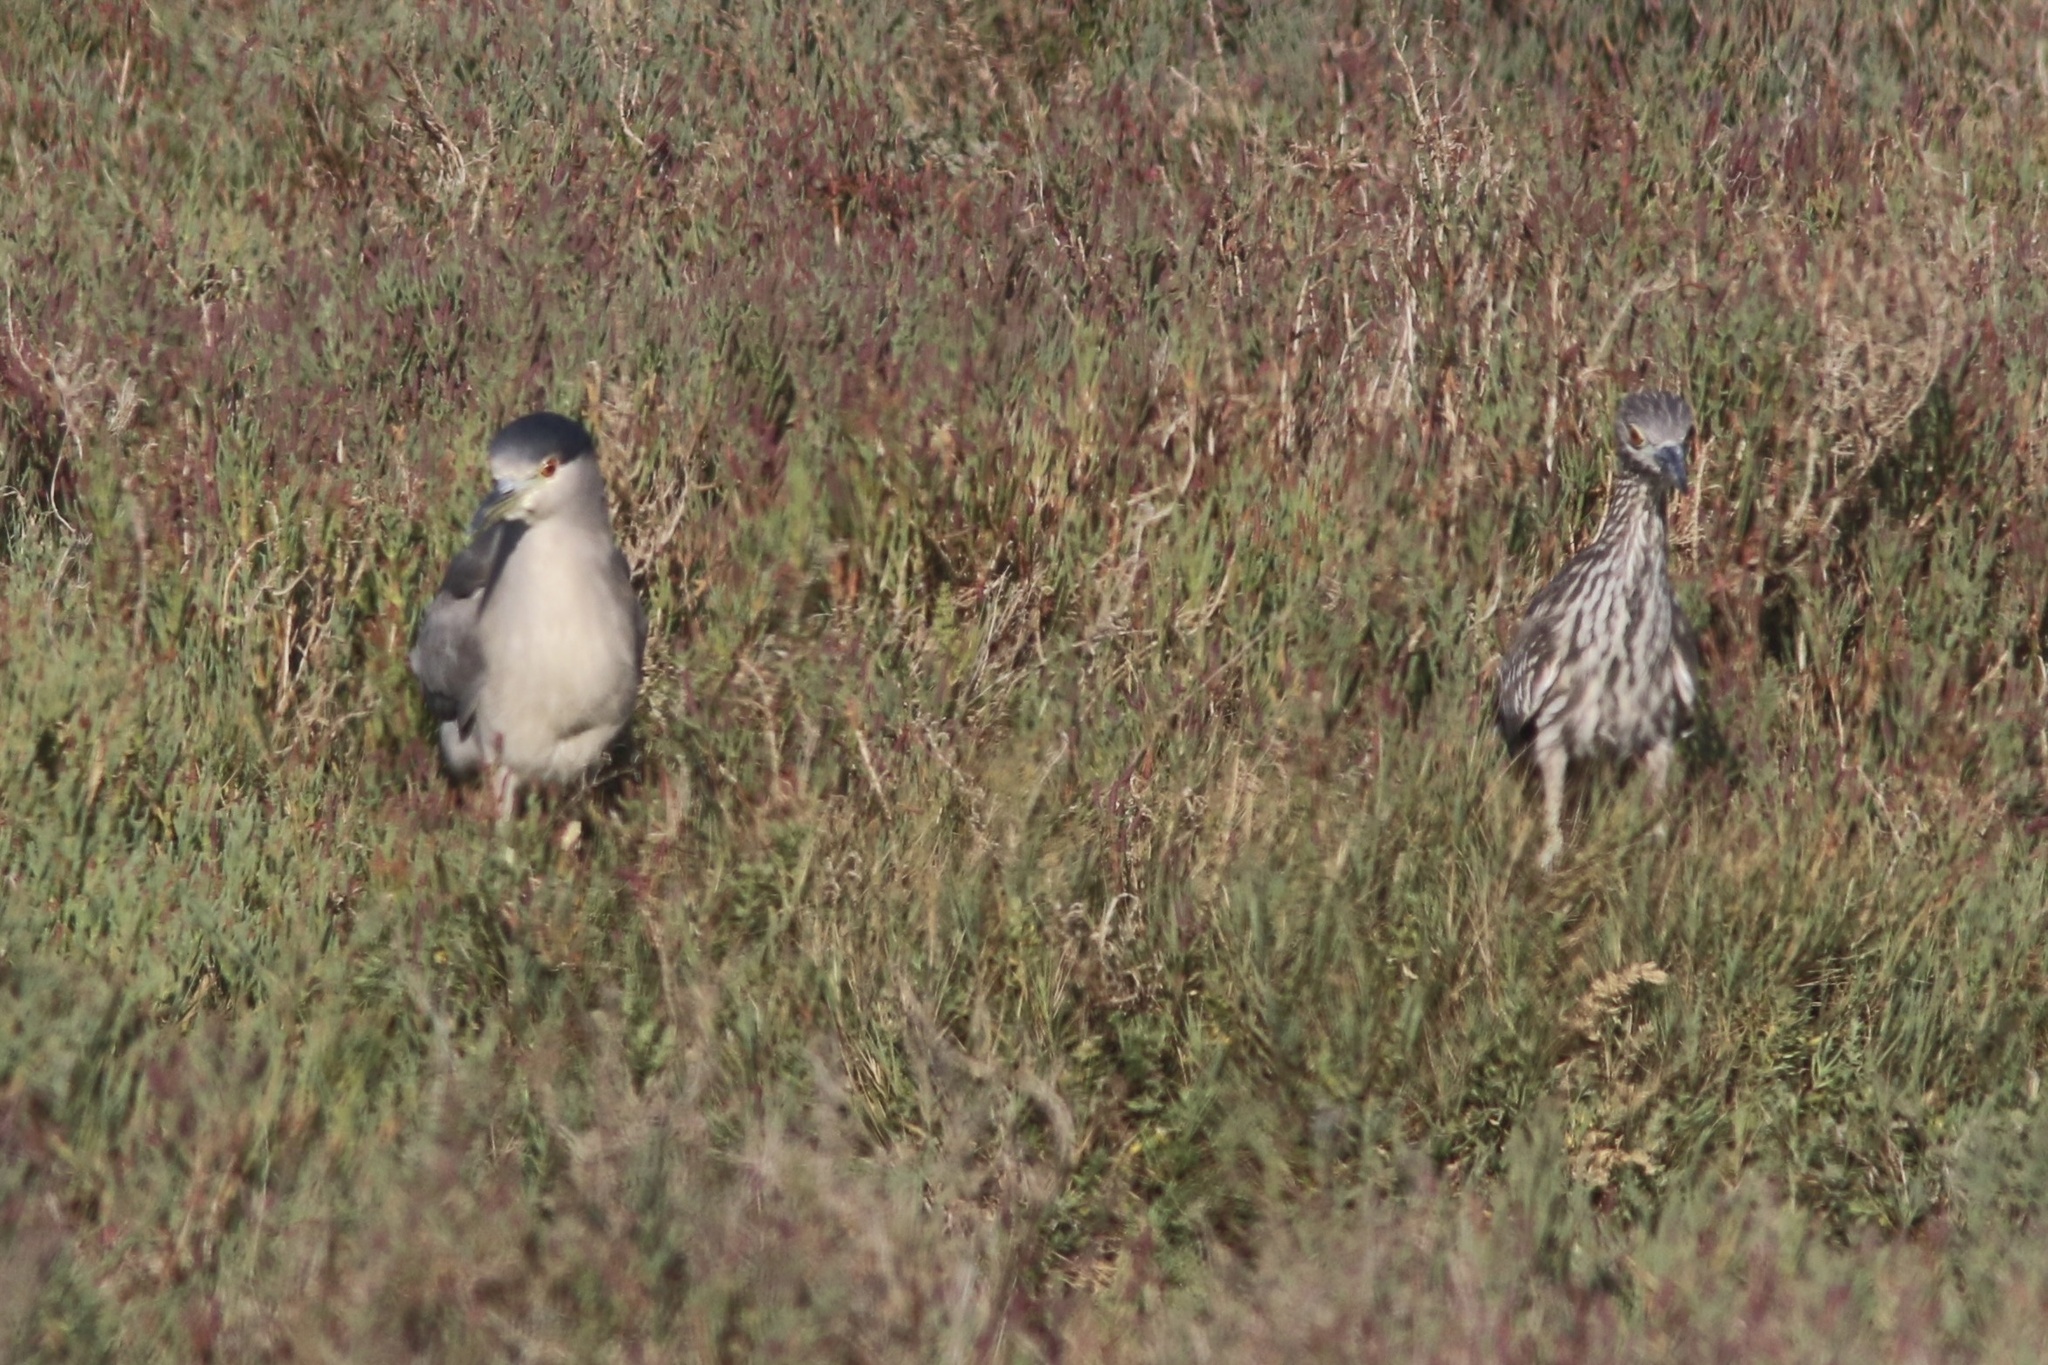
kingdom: Animalia
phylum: Chordata
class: Aves
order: Pelecaniformes
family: Ardeidae
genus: Nycticorax
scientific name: Nycticorax nycticorax
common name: Black-crowned night heron
